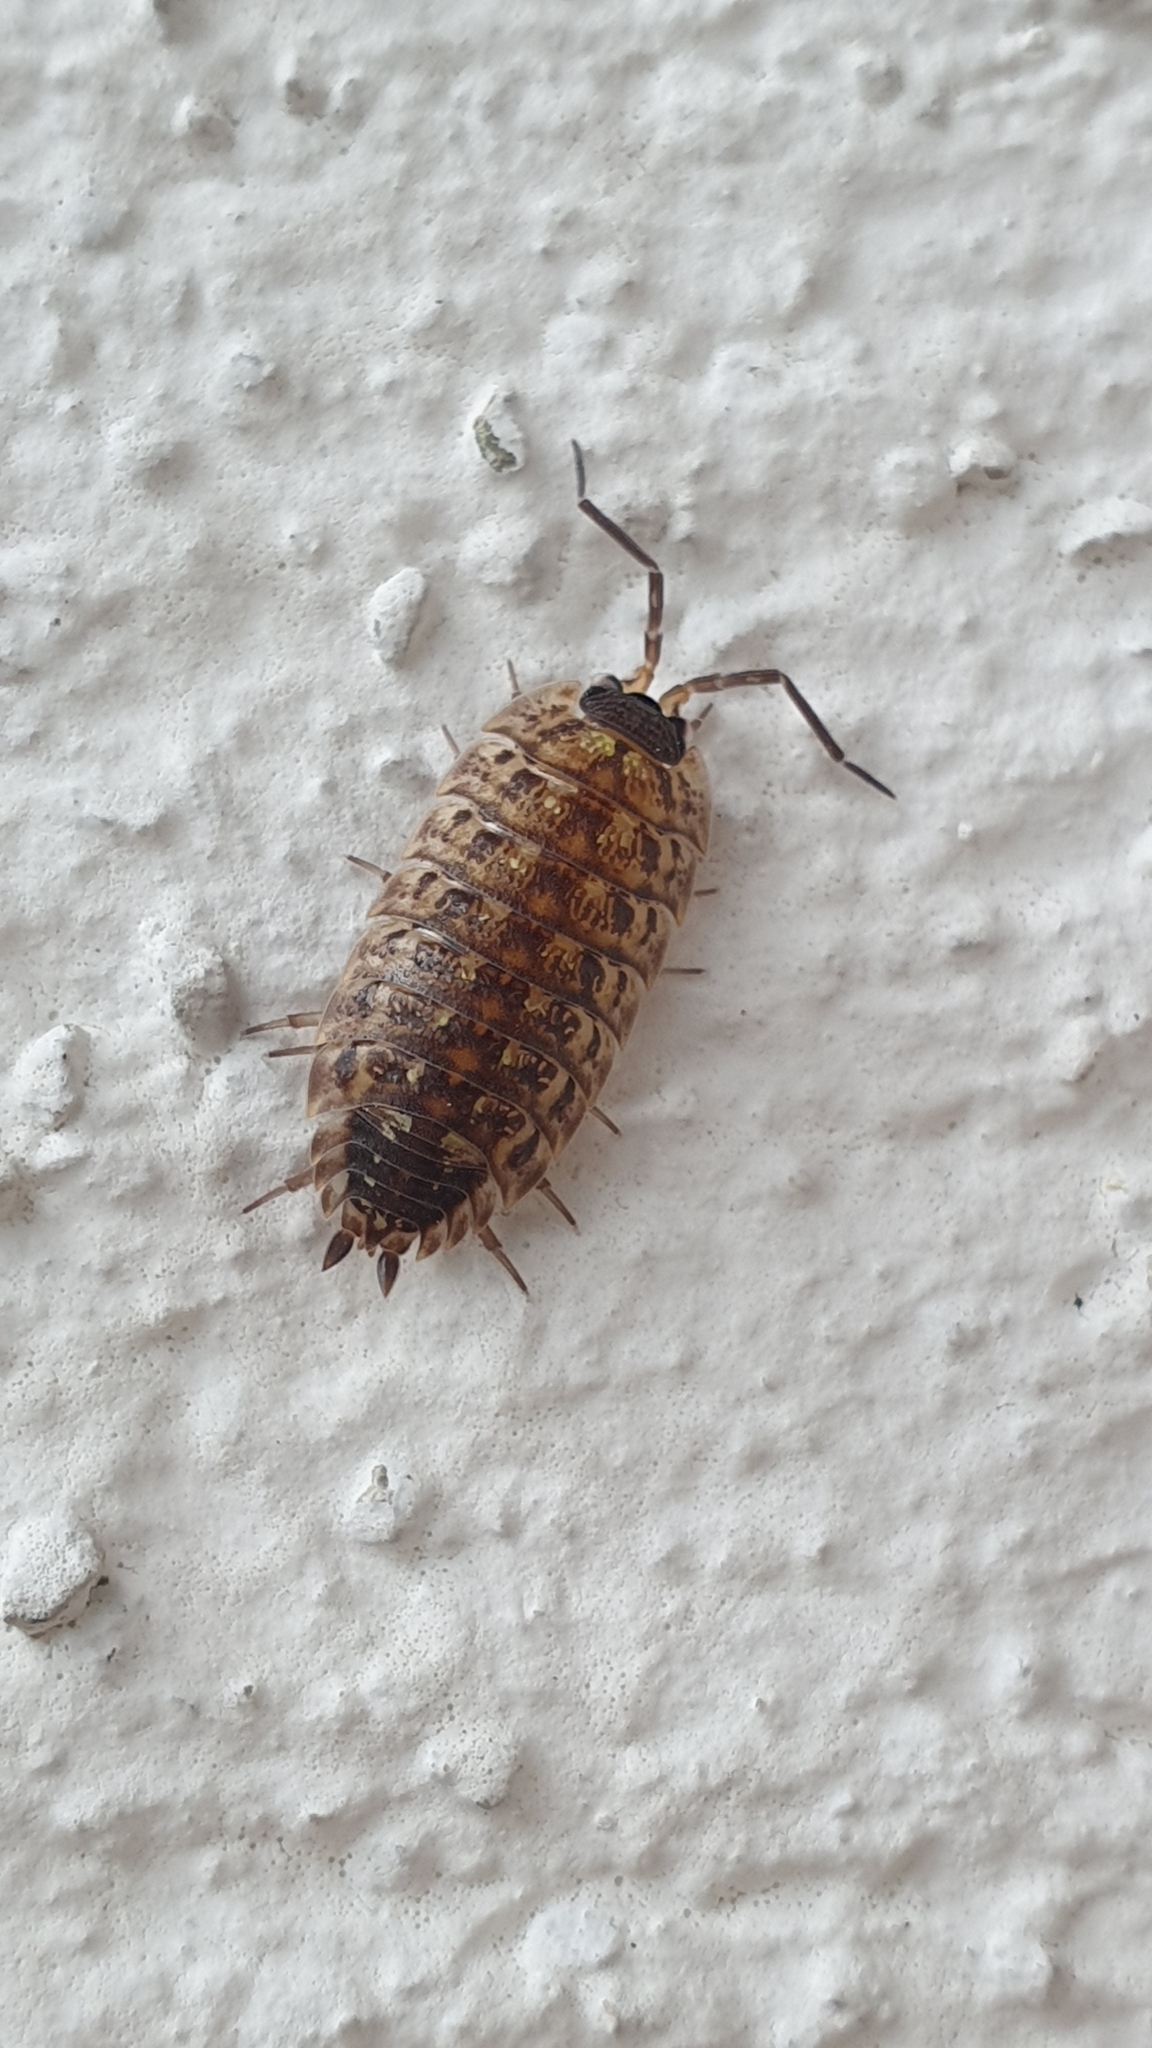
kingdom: Animalia
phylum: Arthropoda
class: Malacostraca
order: Isopoda
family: Porcellionidae
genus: Porcellio
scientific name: Porcellio spinicornis
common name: Painted woodlouse
